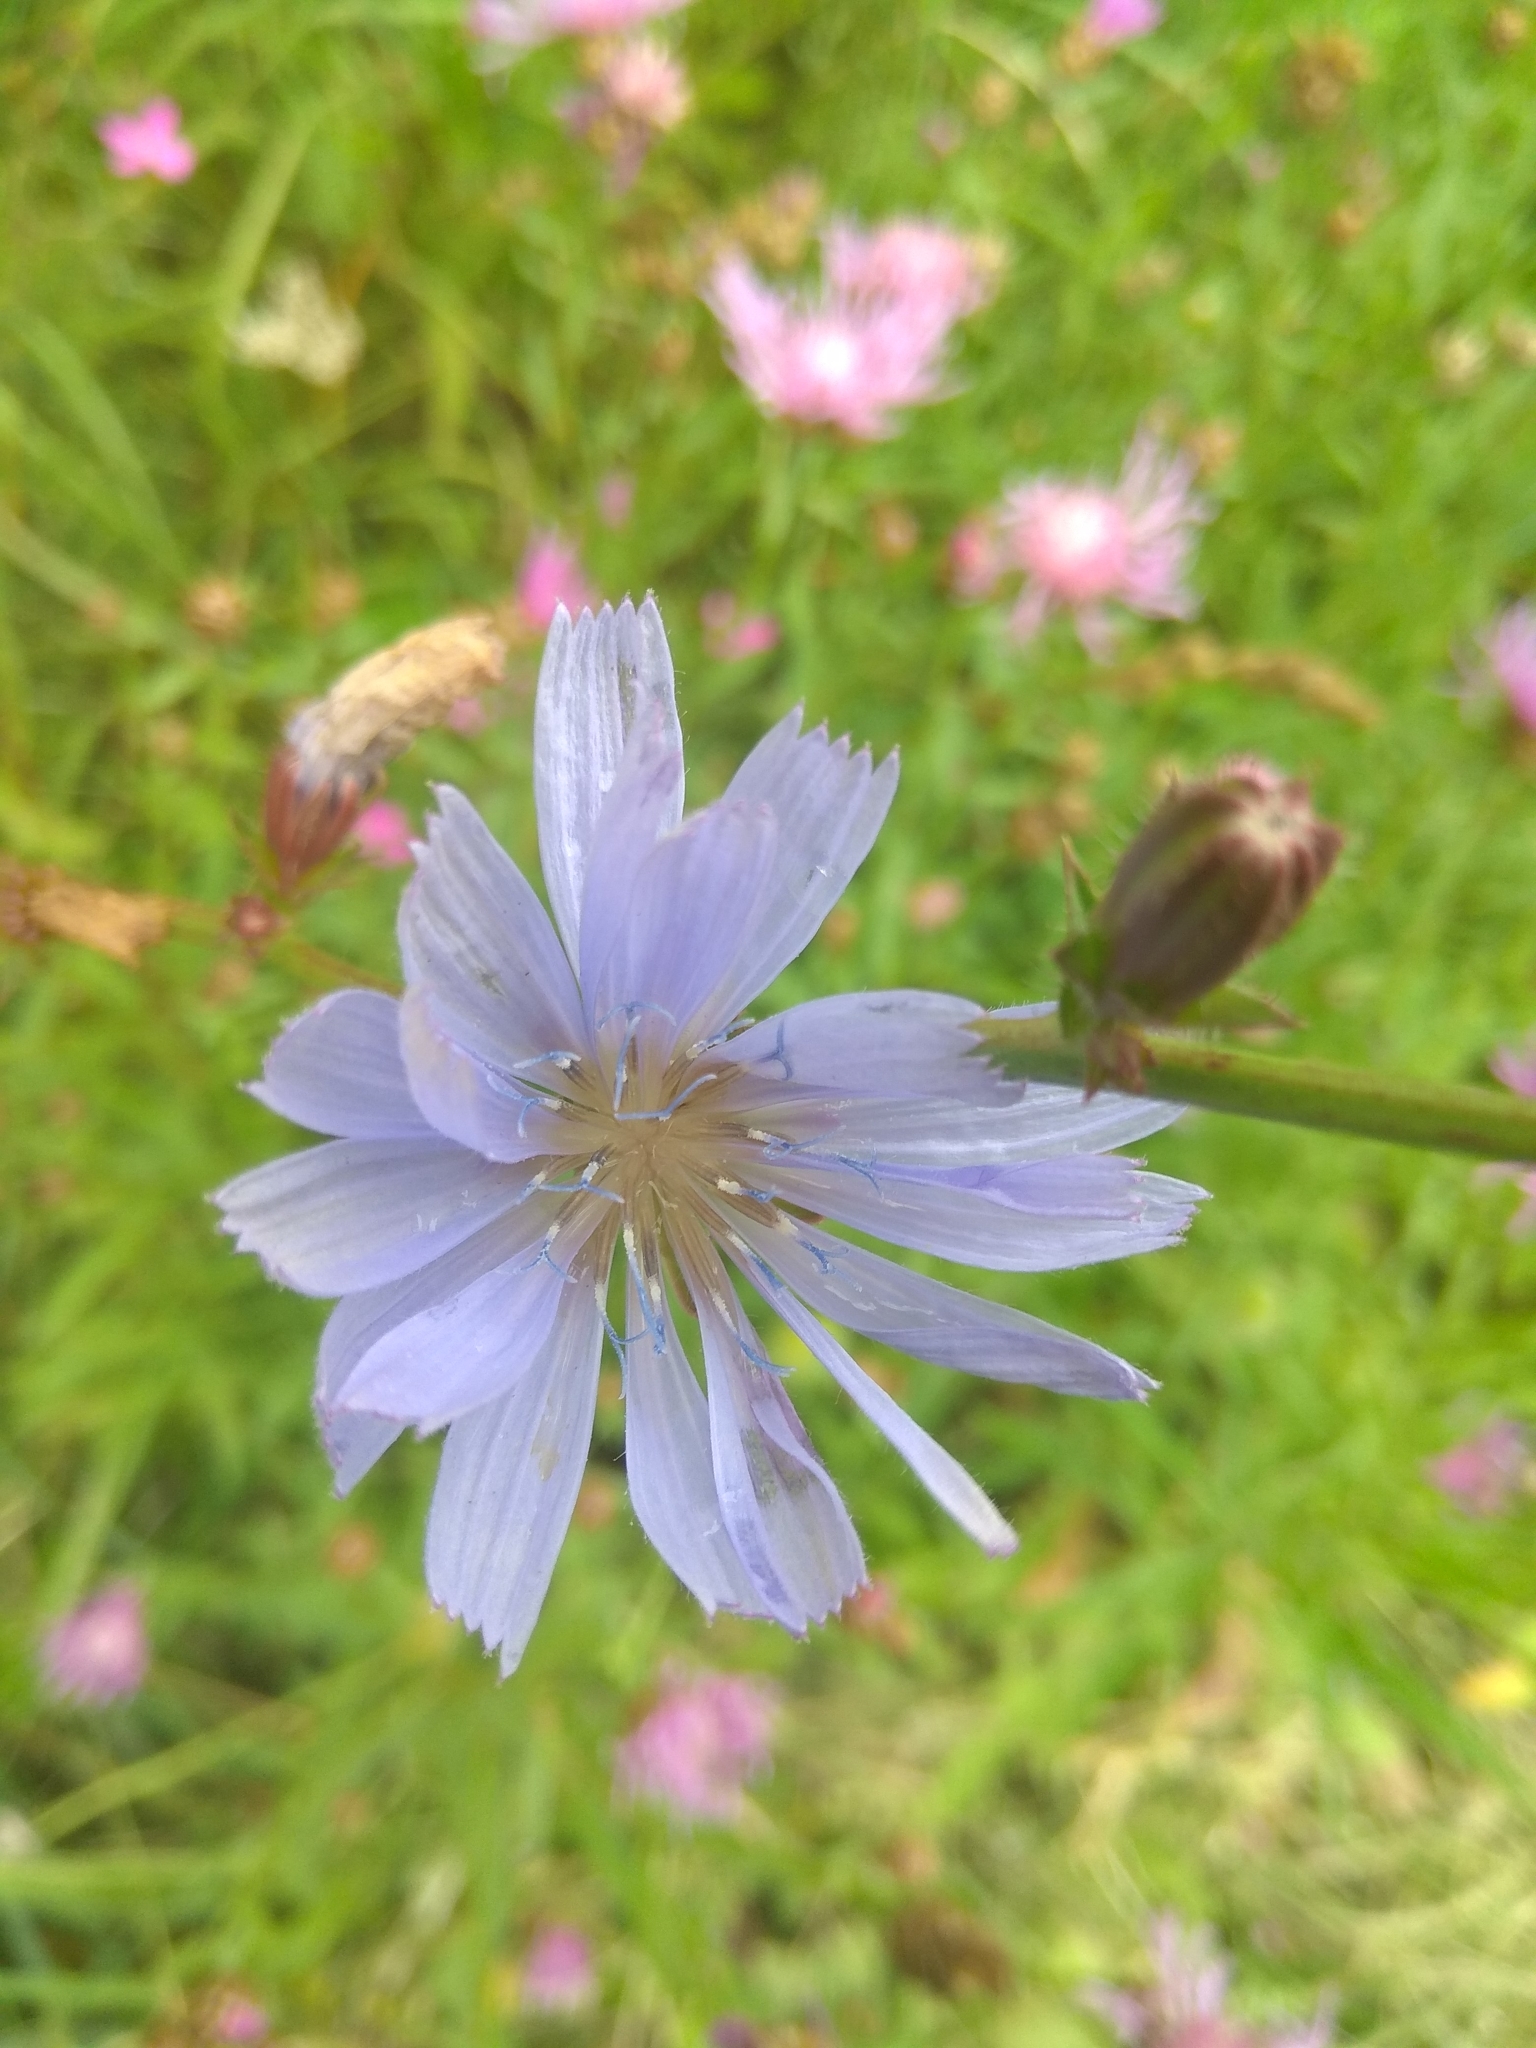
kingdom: Plantae
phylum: Tracheophyta
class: Magnoliopsida
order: Asterales
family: Asteraceae
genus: Cichorium
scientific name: Cichorium intybus
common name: Chicory
